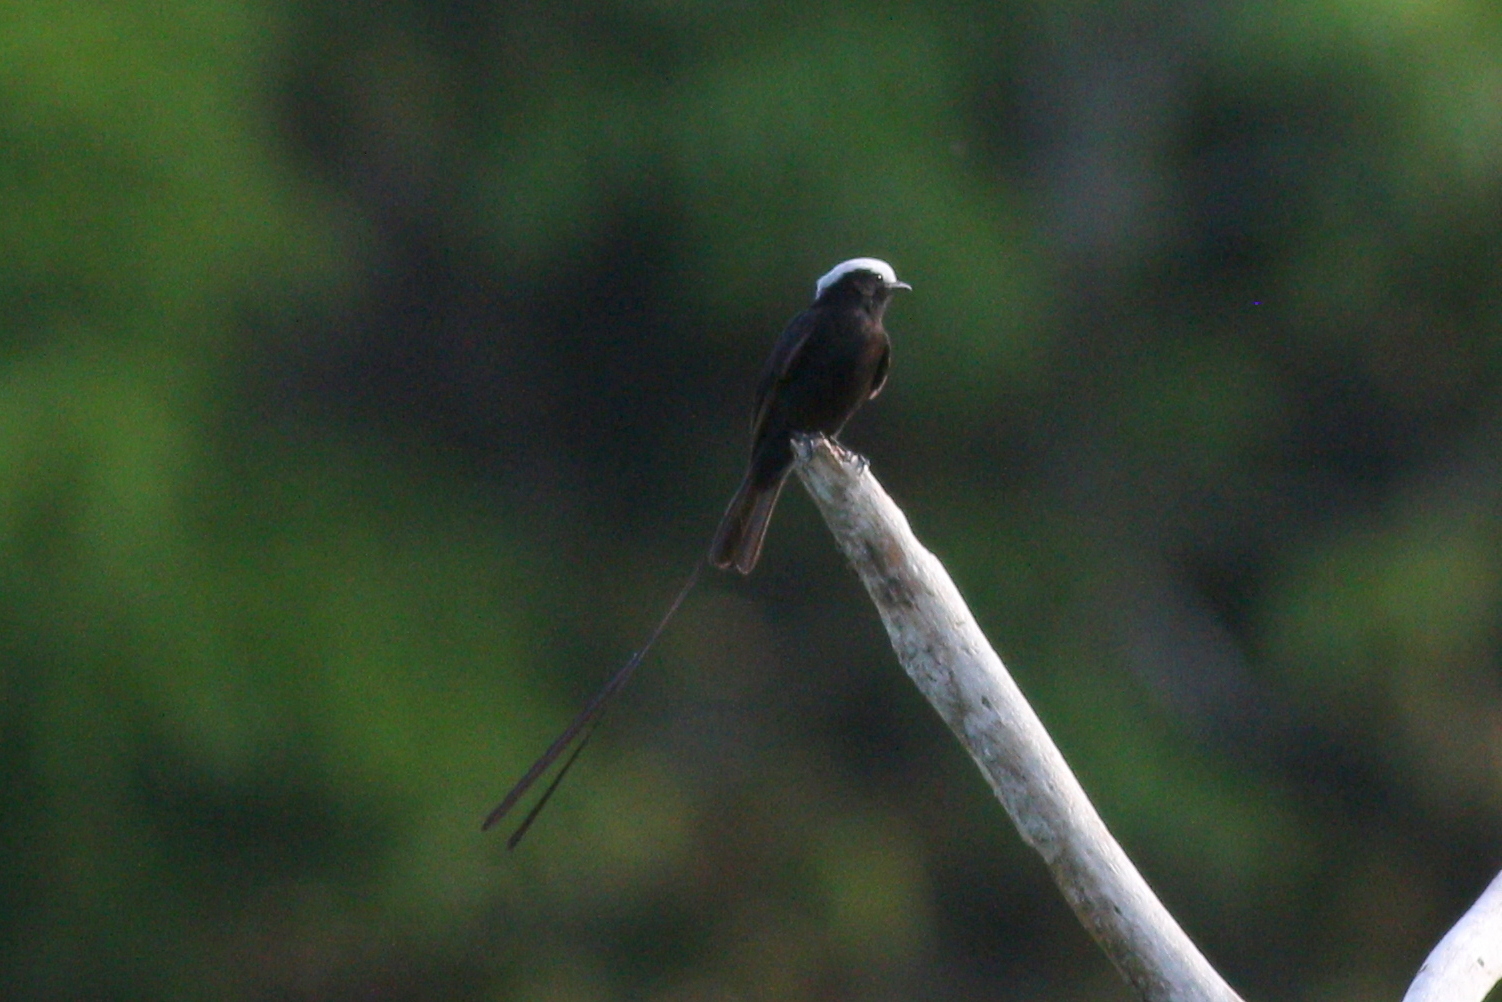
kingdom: Animalia
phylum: Chordata
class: Aves
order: Passeriformes
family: Tyrannidae
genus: Colonia
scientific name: Colonia colonus
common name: Long-tailed tyrant
